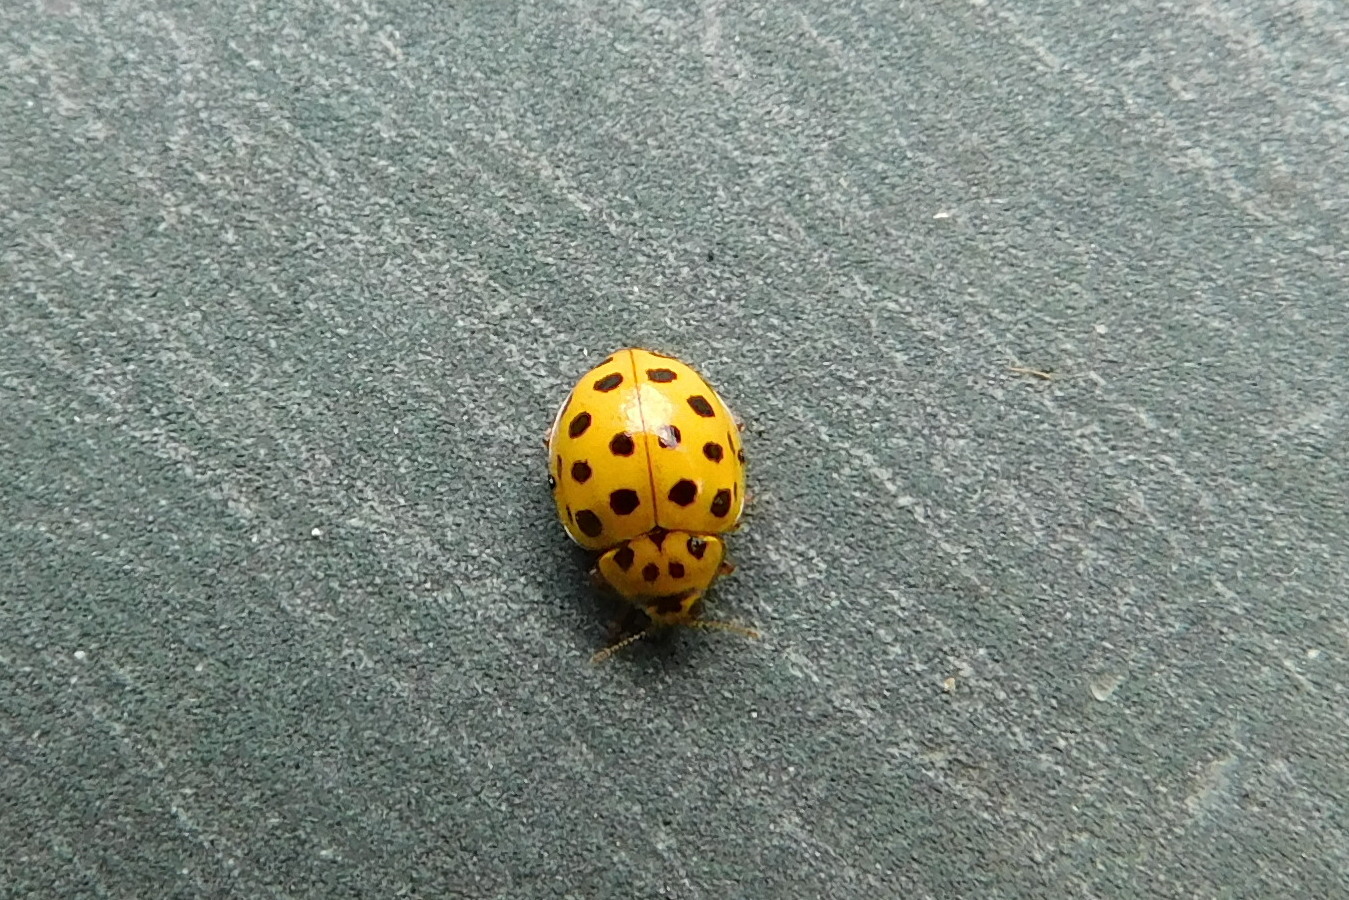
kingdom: Animalia
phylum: Arthropoda
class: Insecta
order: Coleoptera
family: Coccinellidae
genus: Psyllobora
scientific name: Psyllobora vigintiduopunctata
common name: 22-spot ladybird
